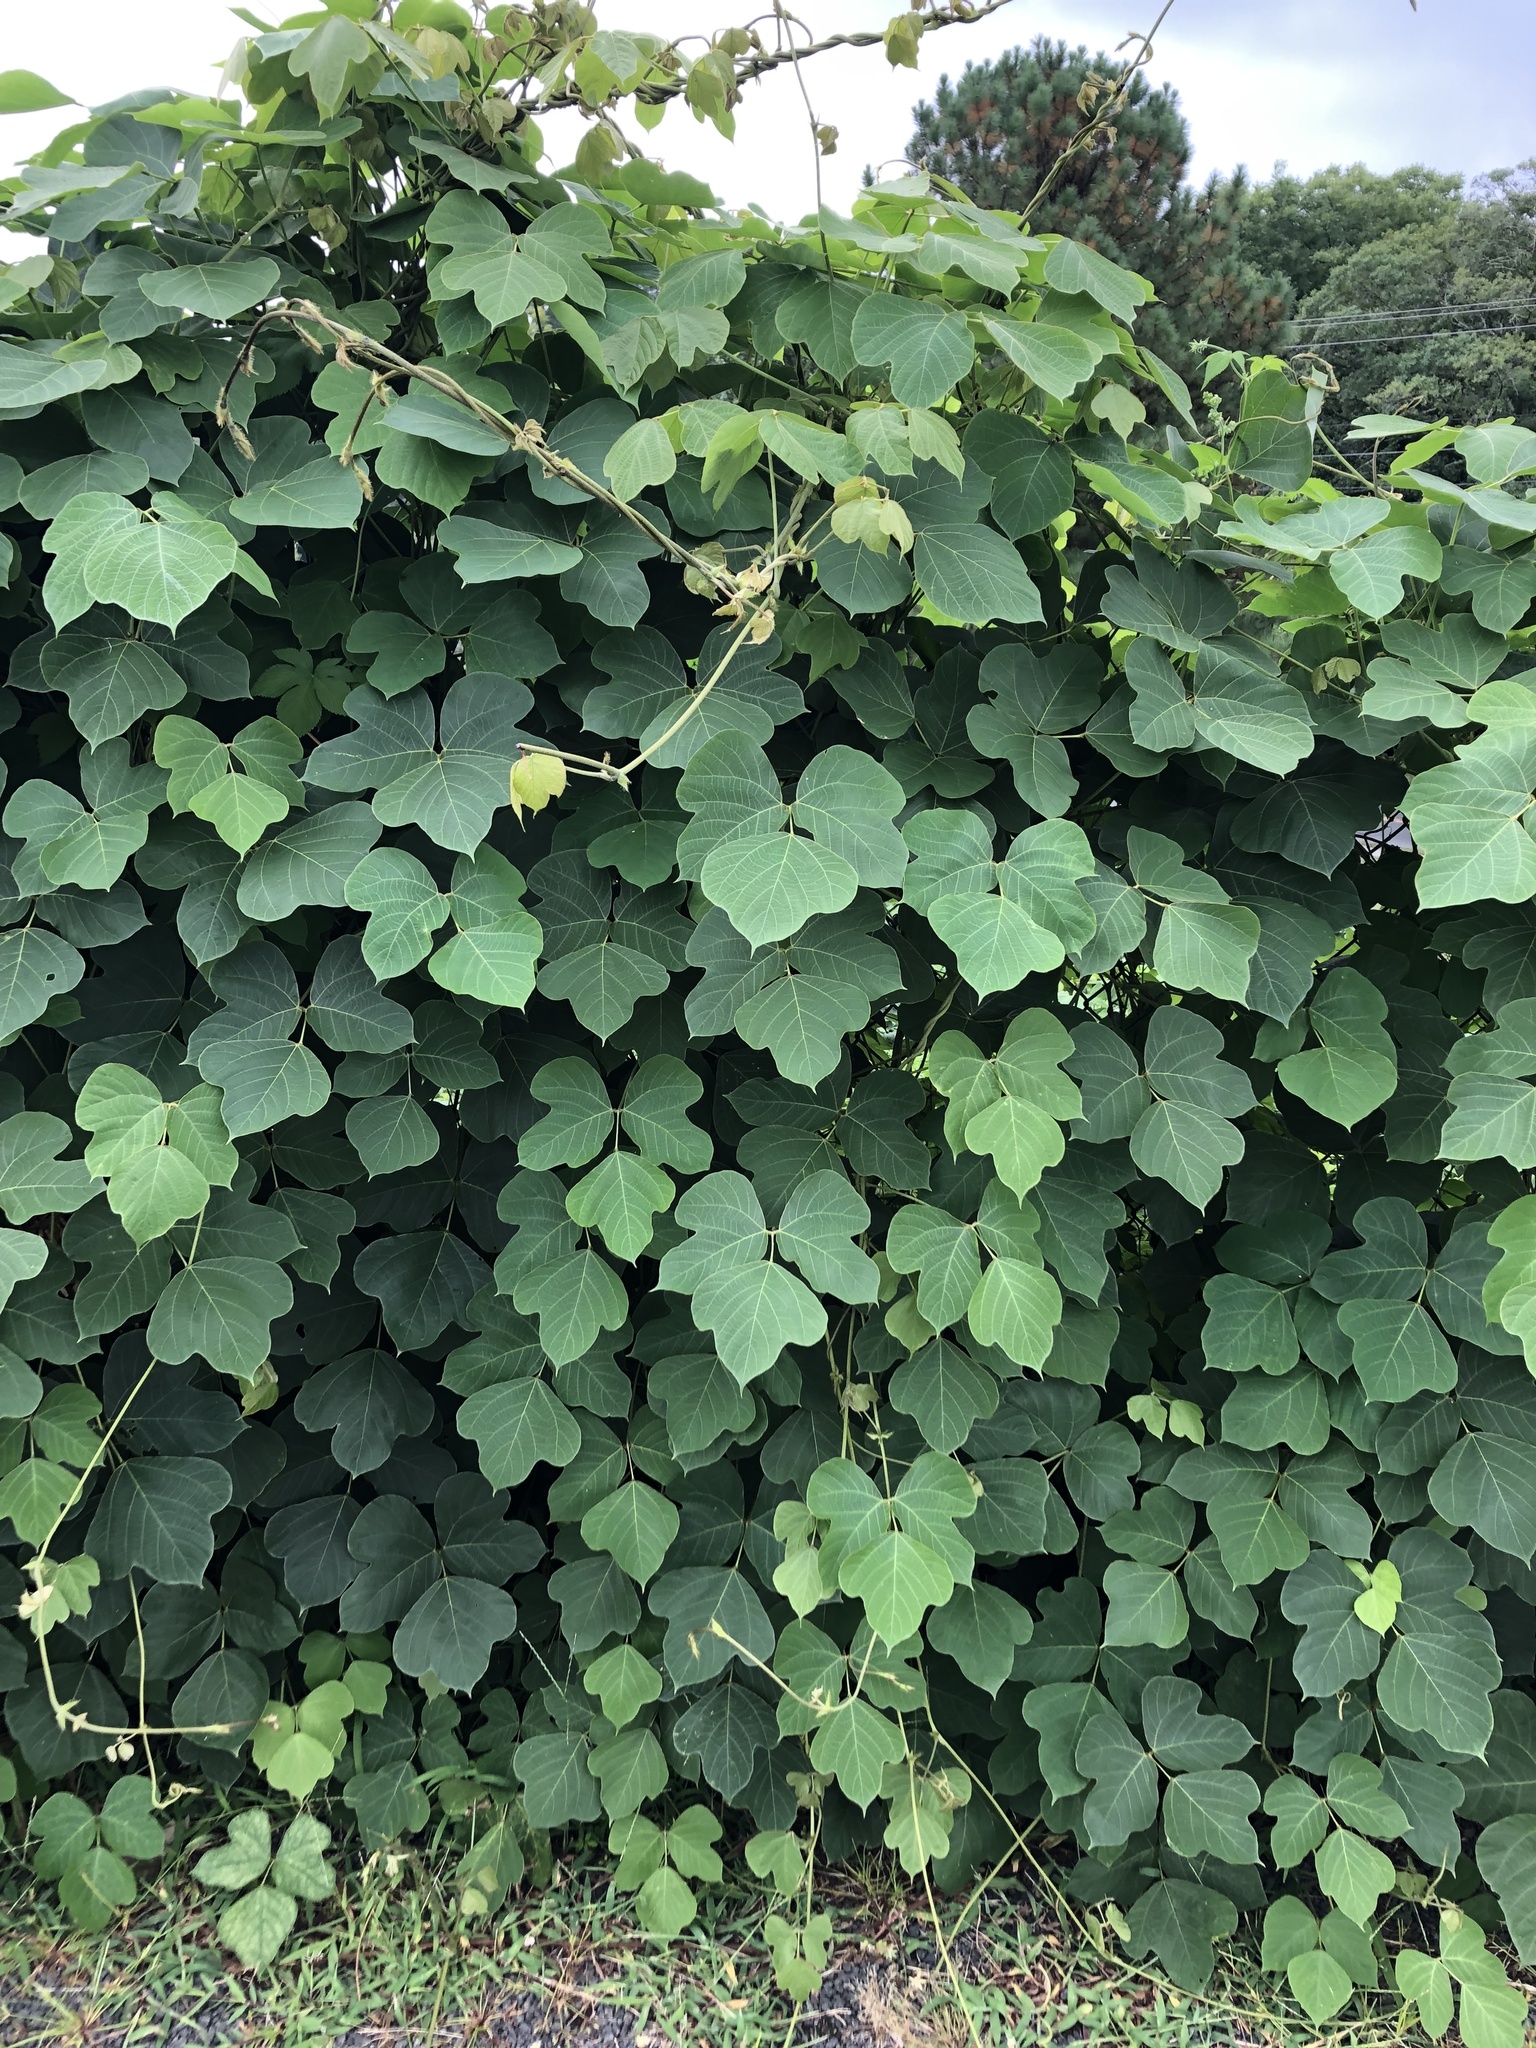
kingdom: Plantae
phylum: Tracheophyta
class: Magnoliopsida
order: Fabales
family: Fabaceae
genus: Pueraria
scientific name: Pueraria montana
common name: Kudzu
